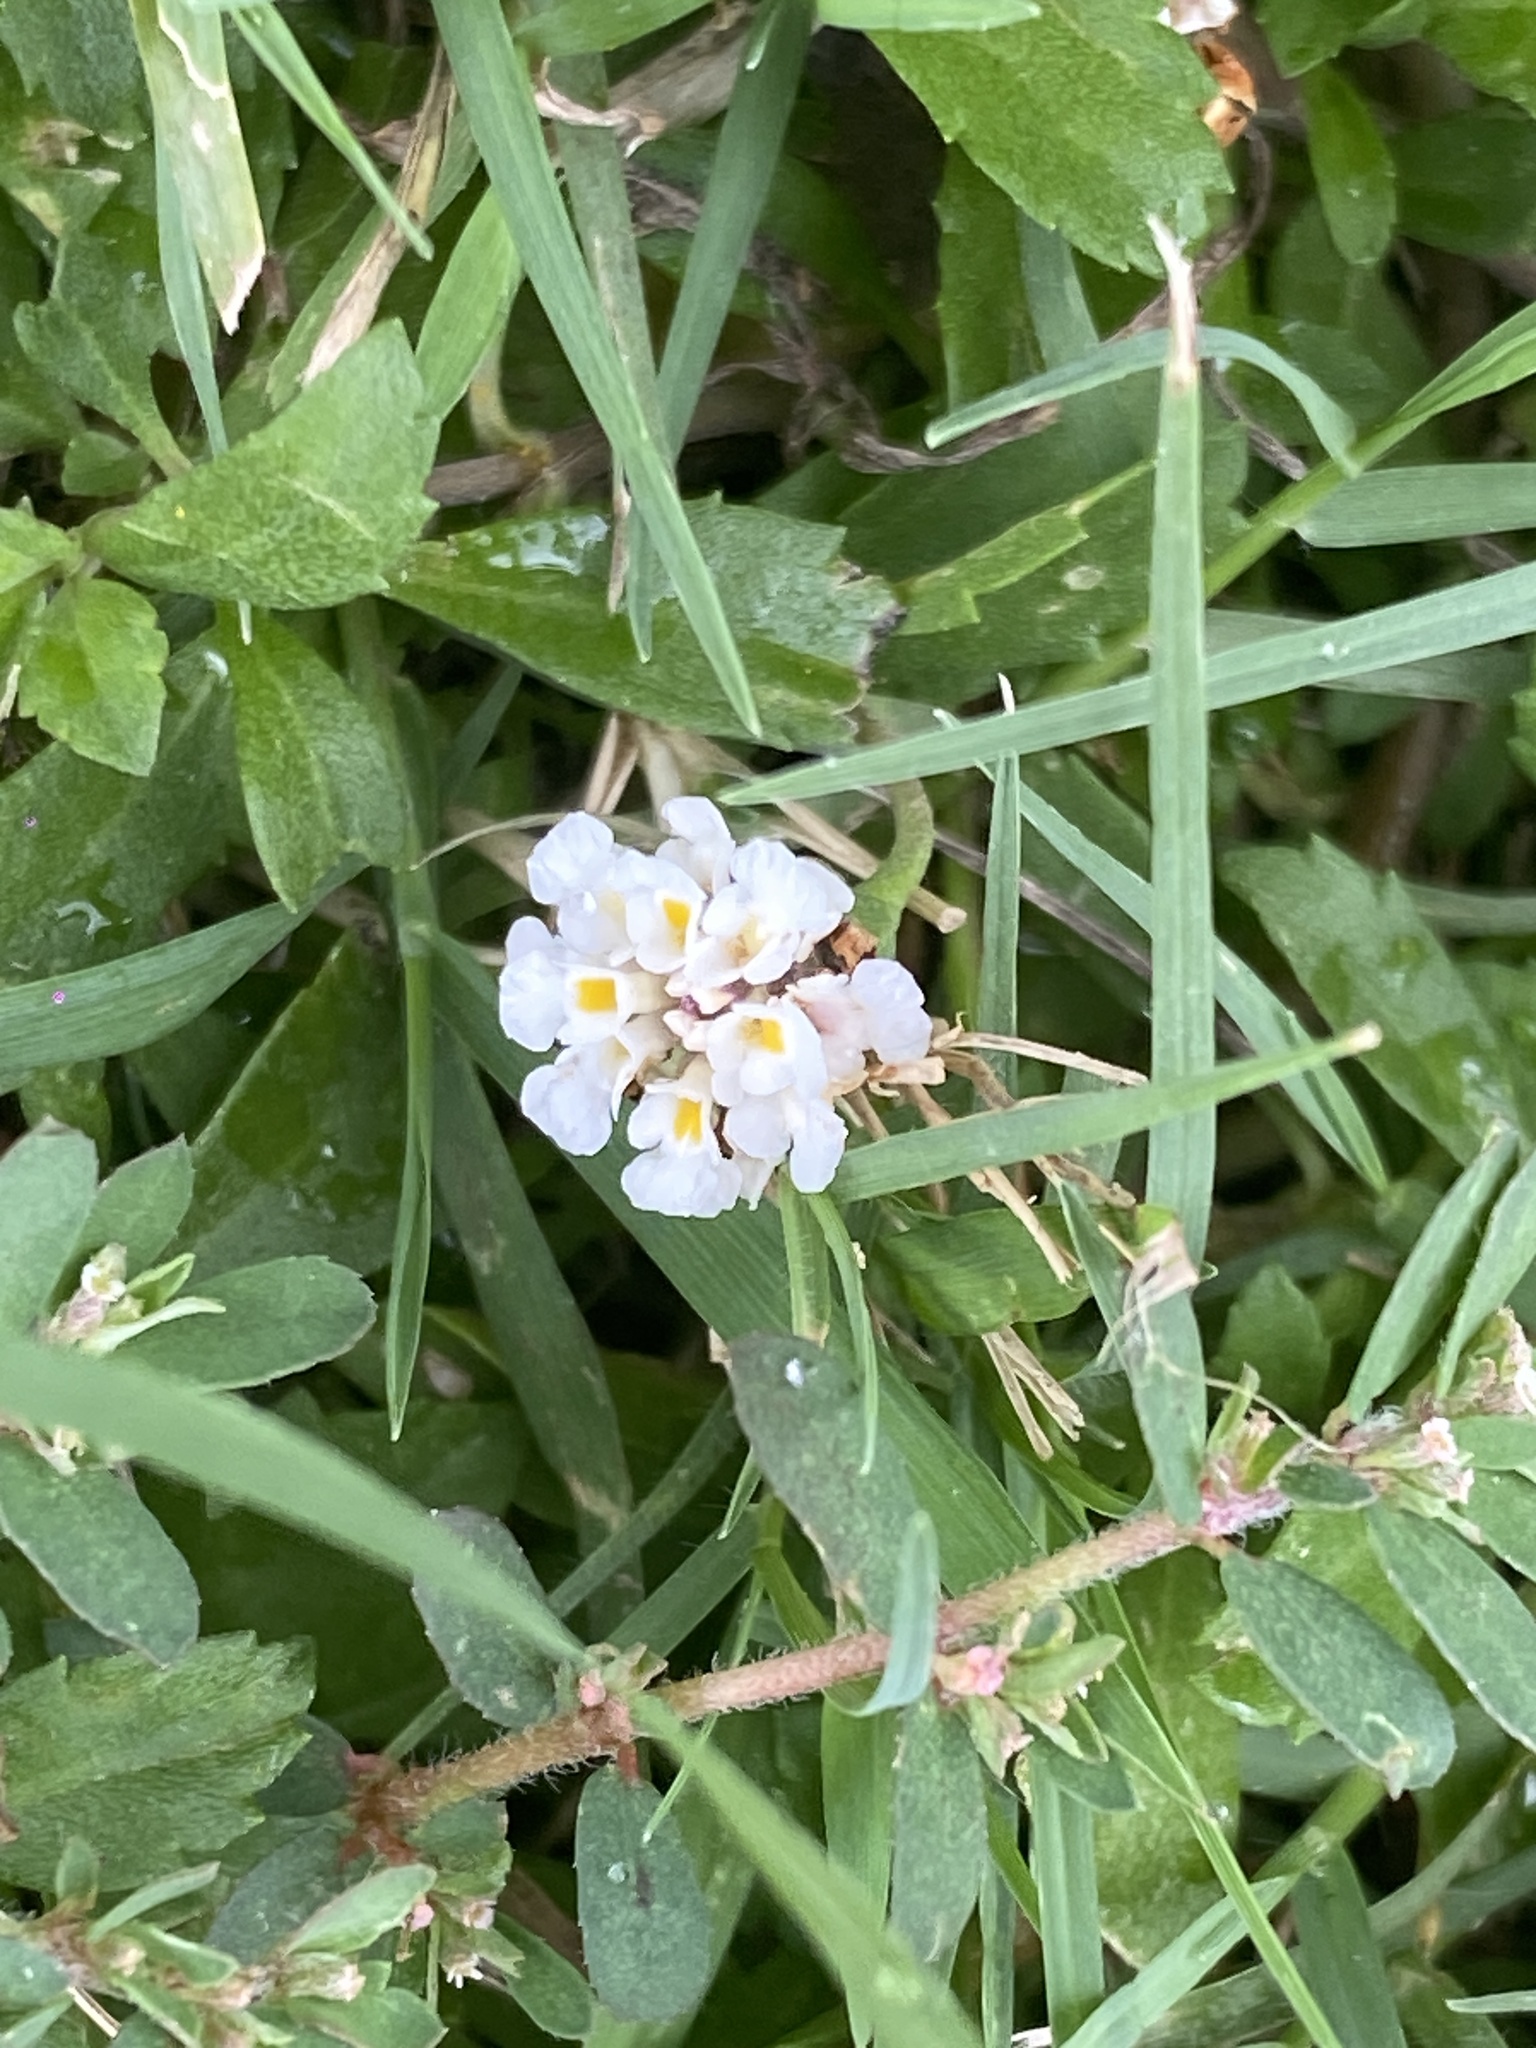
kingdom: Plantae
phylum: Tracheophyta
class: Magnoliopsida
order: Lamiales
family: Verbenaceae
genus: Phyla
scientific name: Phyla nodiflora
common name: Frogfruit
